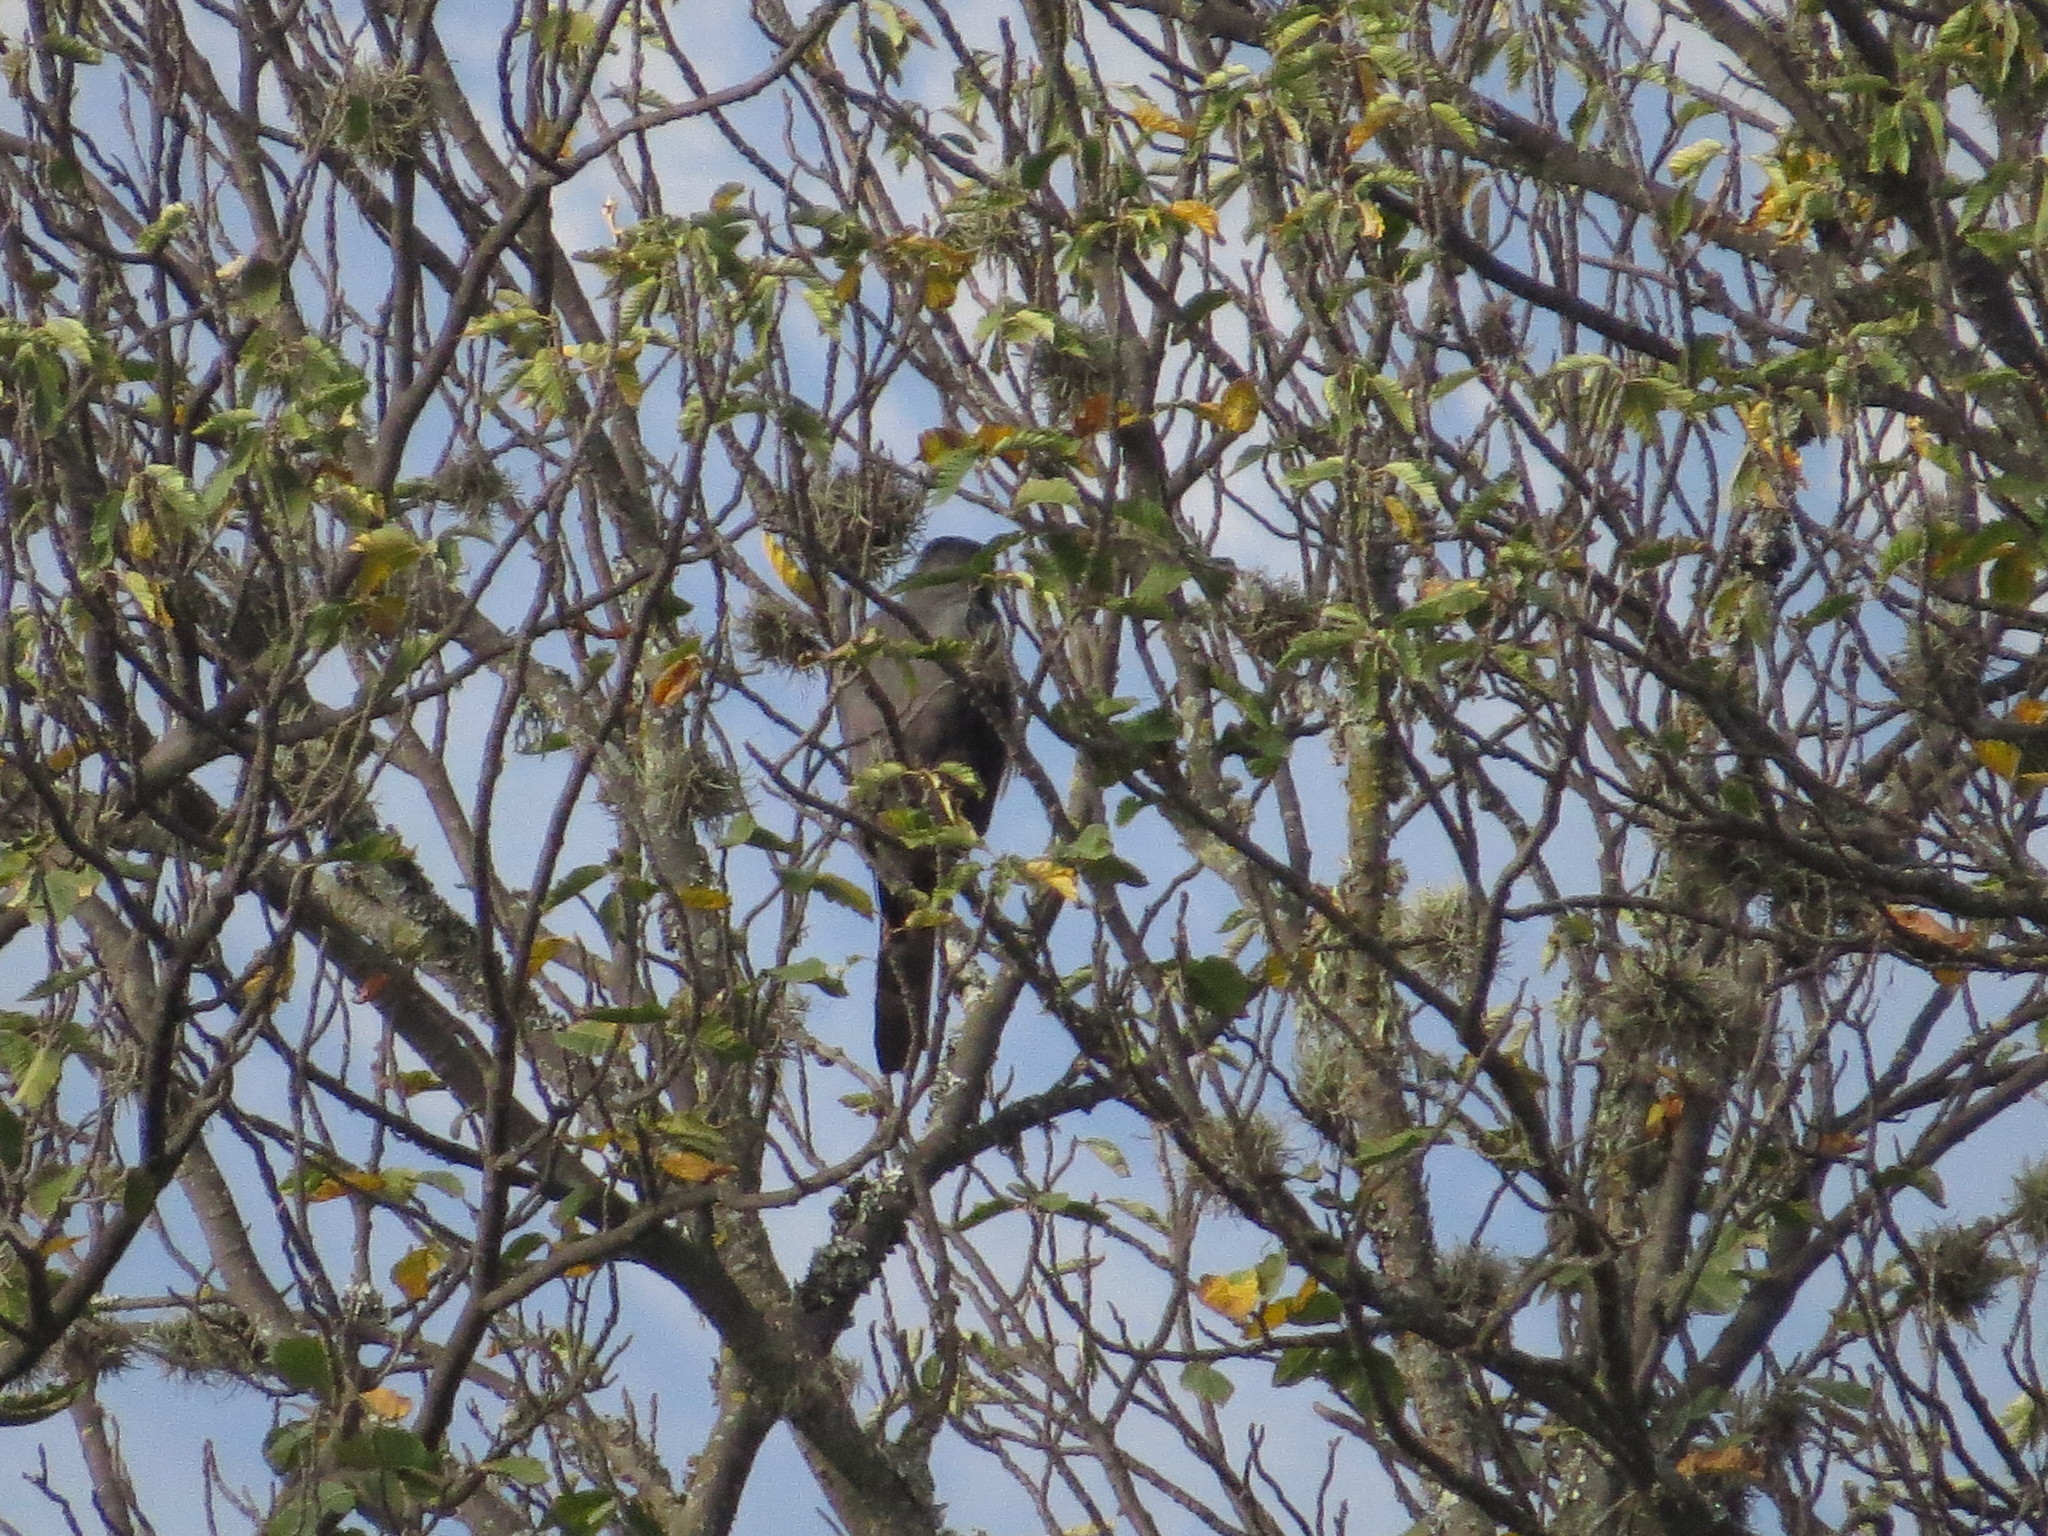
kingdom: Animalia
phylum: Chordata
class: Aves
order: Accipitriformes
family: Accipitridae
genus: Accipiter
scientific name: Accipiter bicolor
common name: Bicolored hawk
